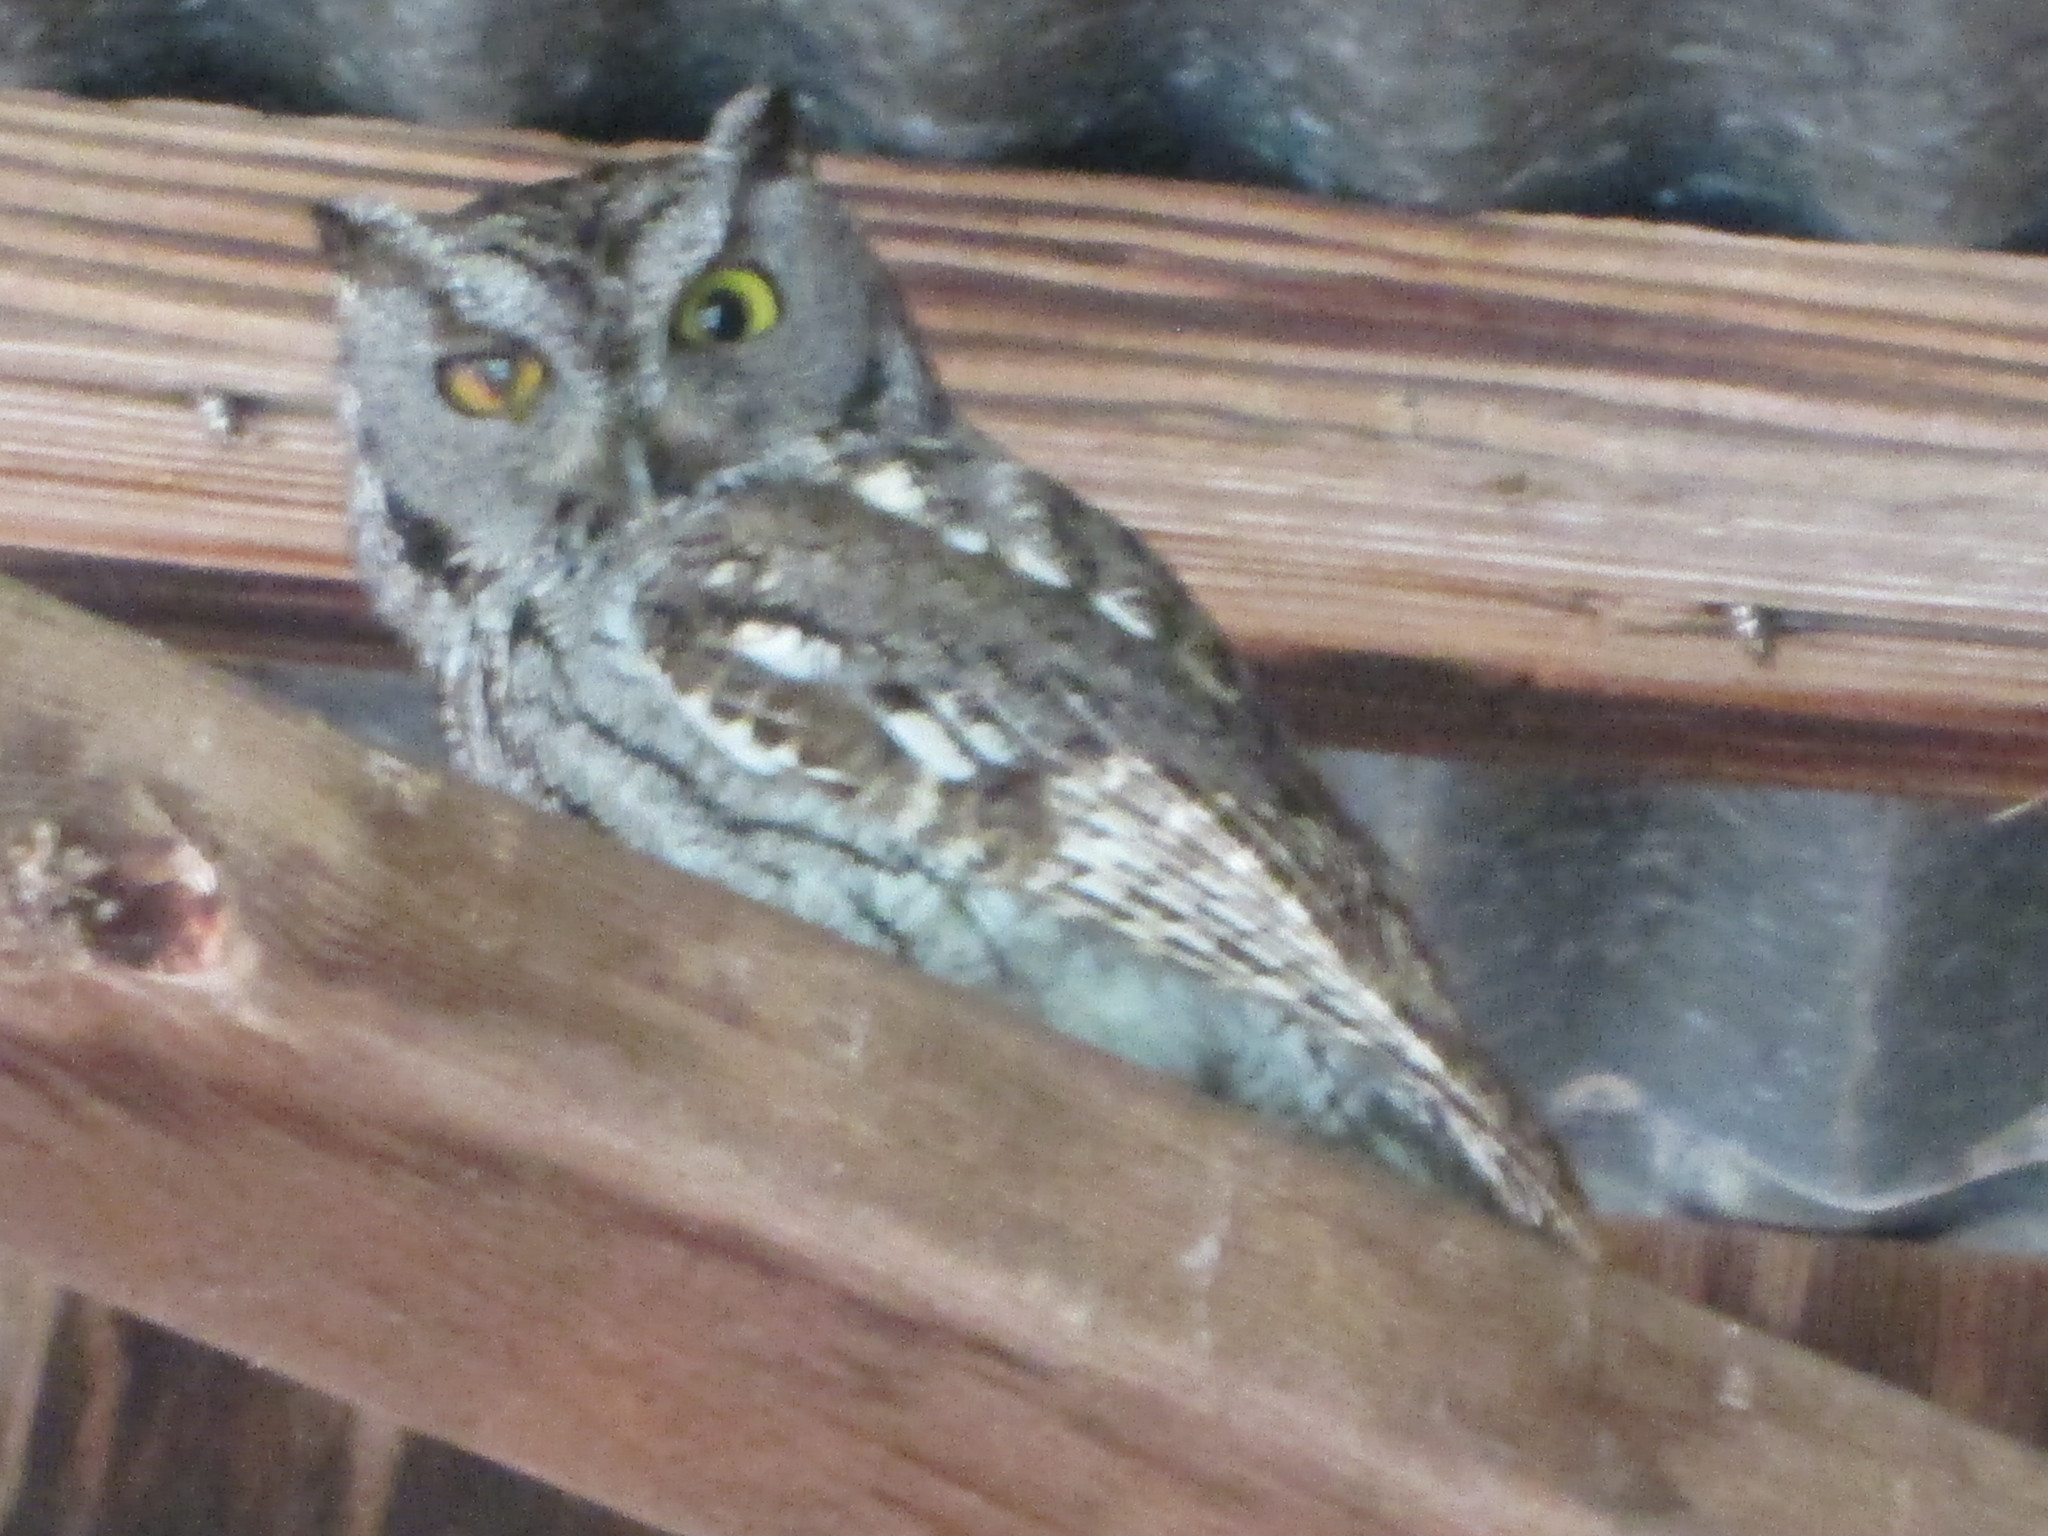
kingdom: Animalia
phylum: Chordata
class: Aves
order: Strigiformes
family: Strigidae
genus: Megascops
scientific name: Megascops kennicottii
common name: Western screech-owl
